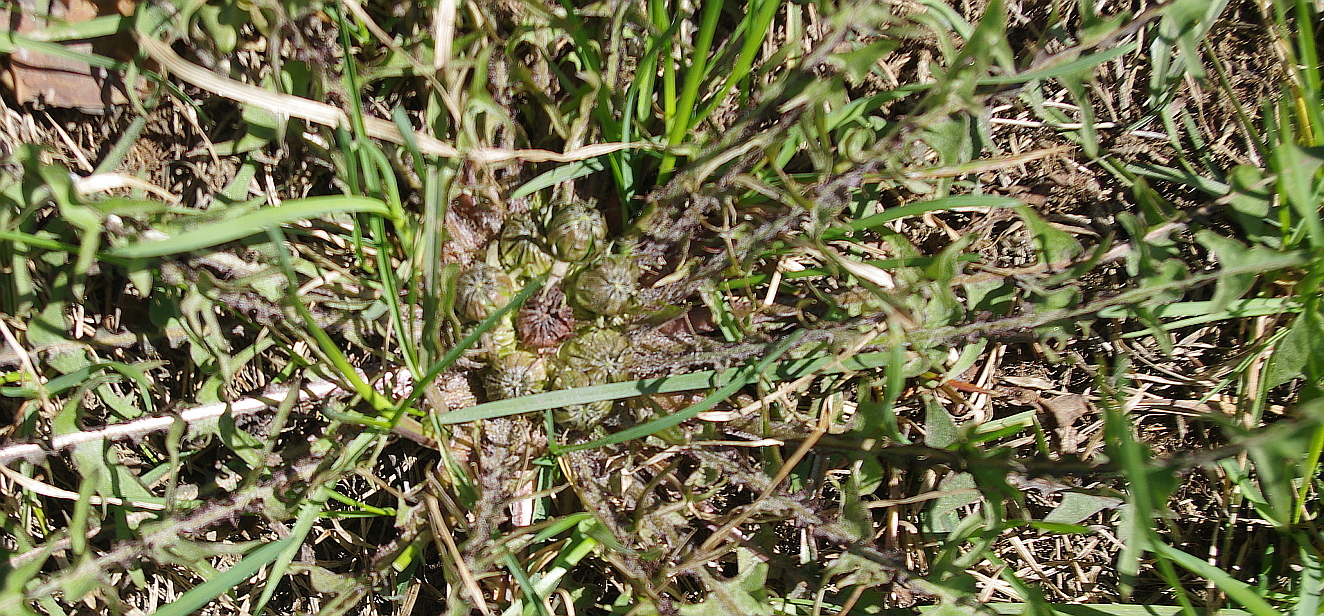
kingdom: Plantae
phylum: Tracheophyta
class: Magnoliopsida
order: Asterales
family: Asteraceae
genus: Taraxacum
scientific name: Taraxacum officinale
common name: Common dandelion
